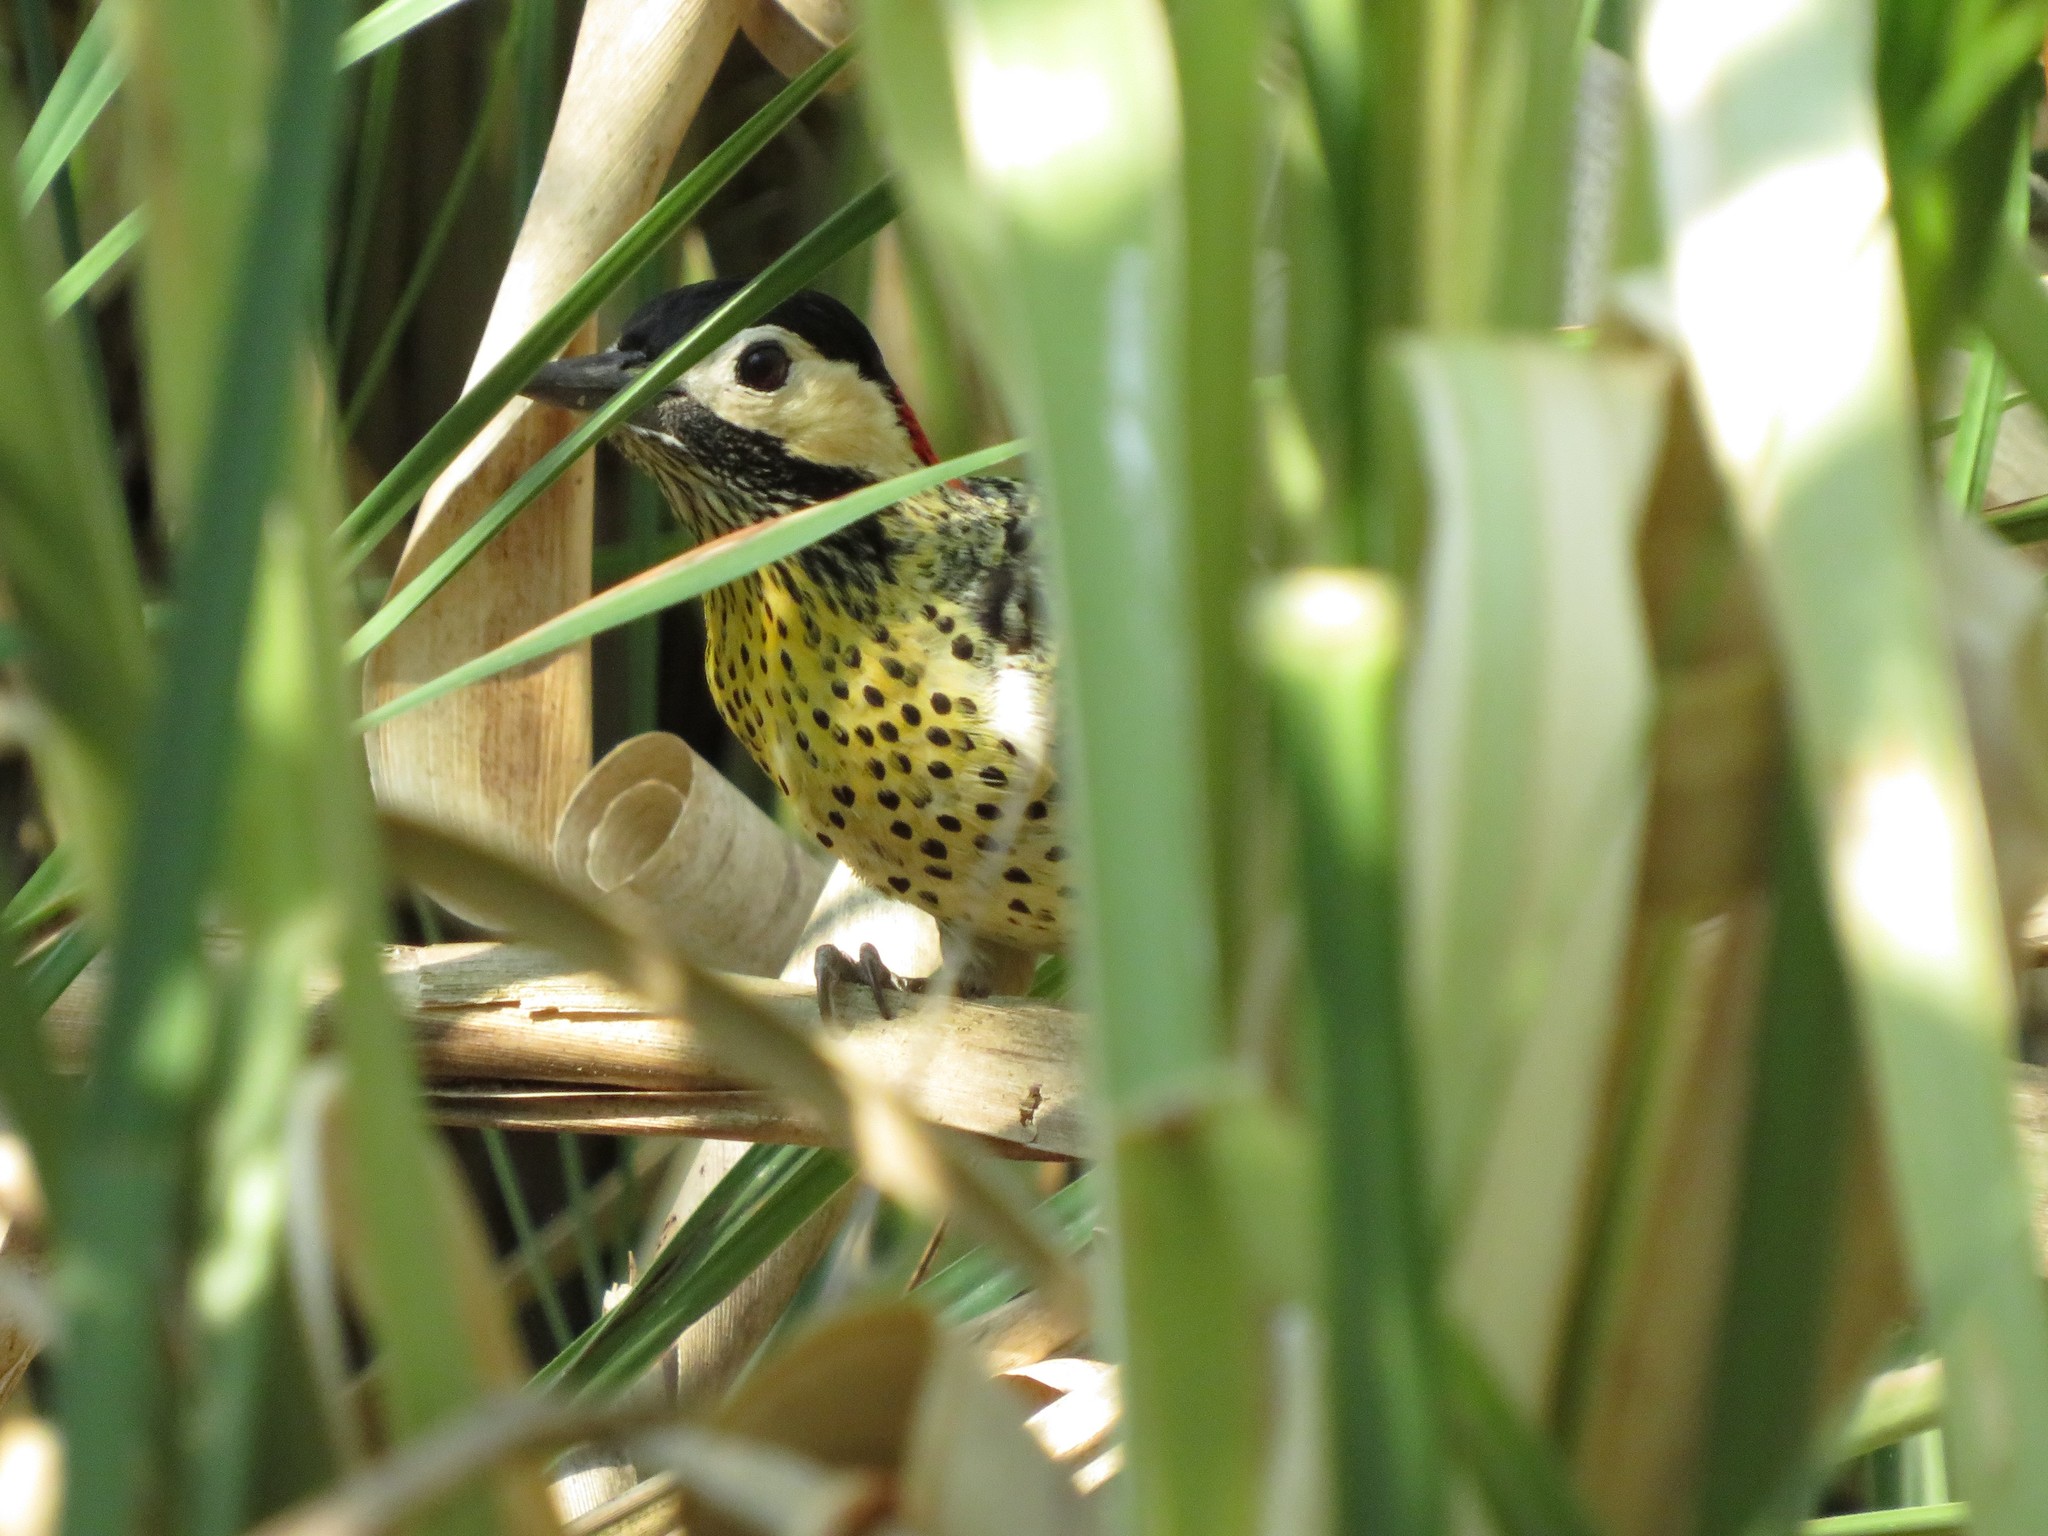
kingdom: Animalia
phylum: Chordata
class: Aves
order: Piciformes
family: Picidae
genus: Colaptes
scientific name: Colaptes melanochloros
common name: Green-barred woodpecker
